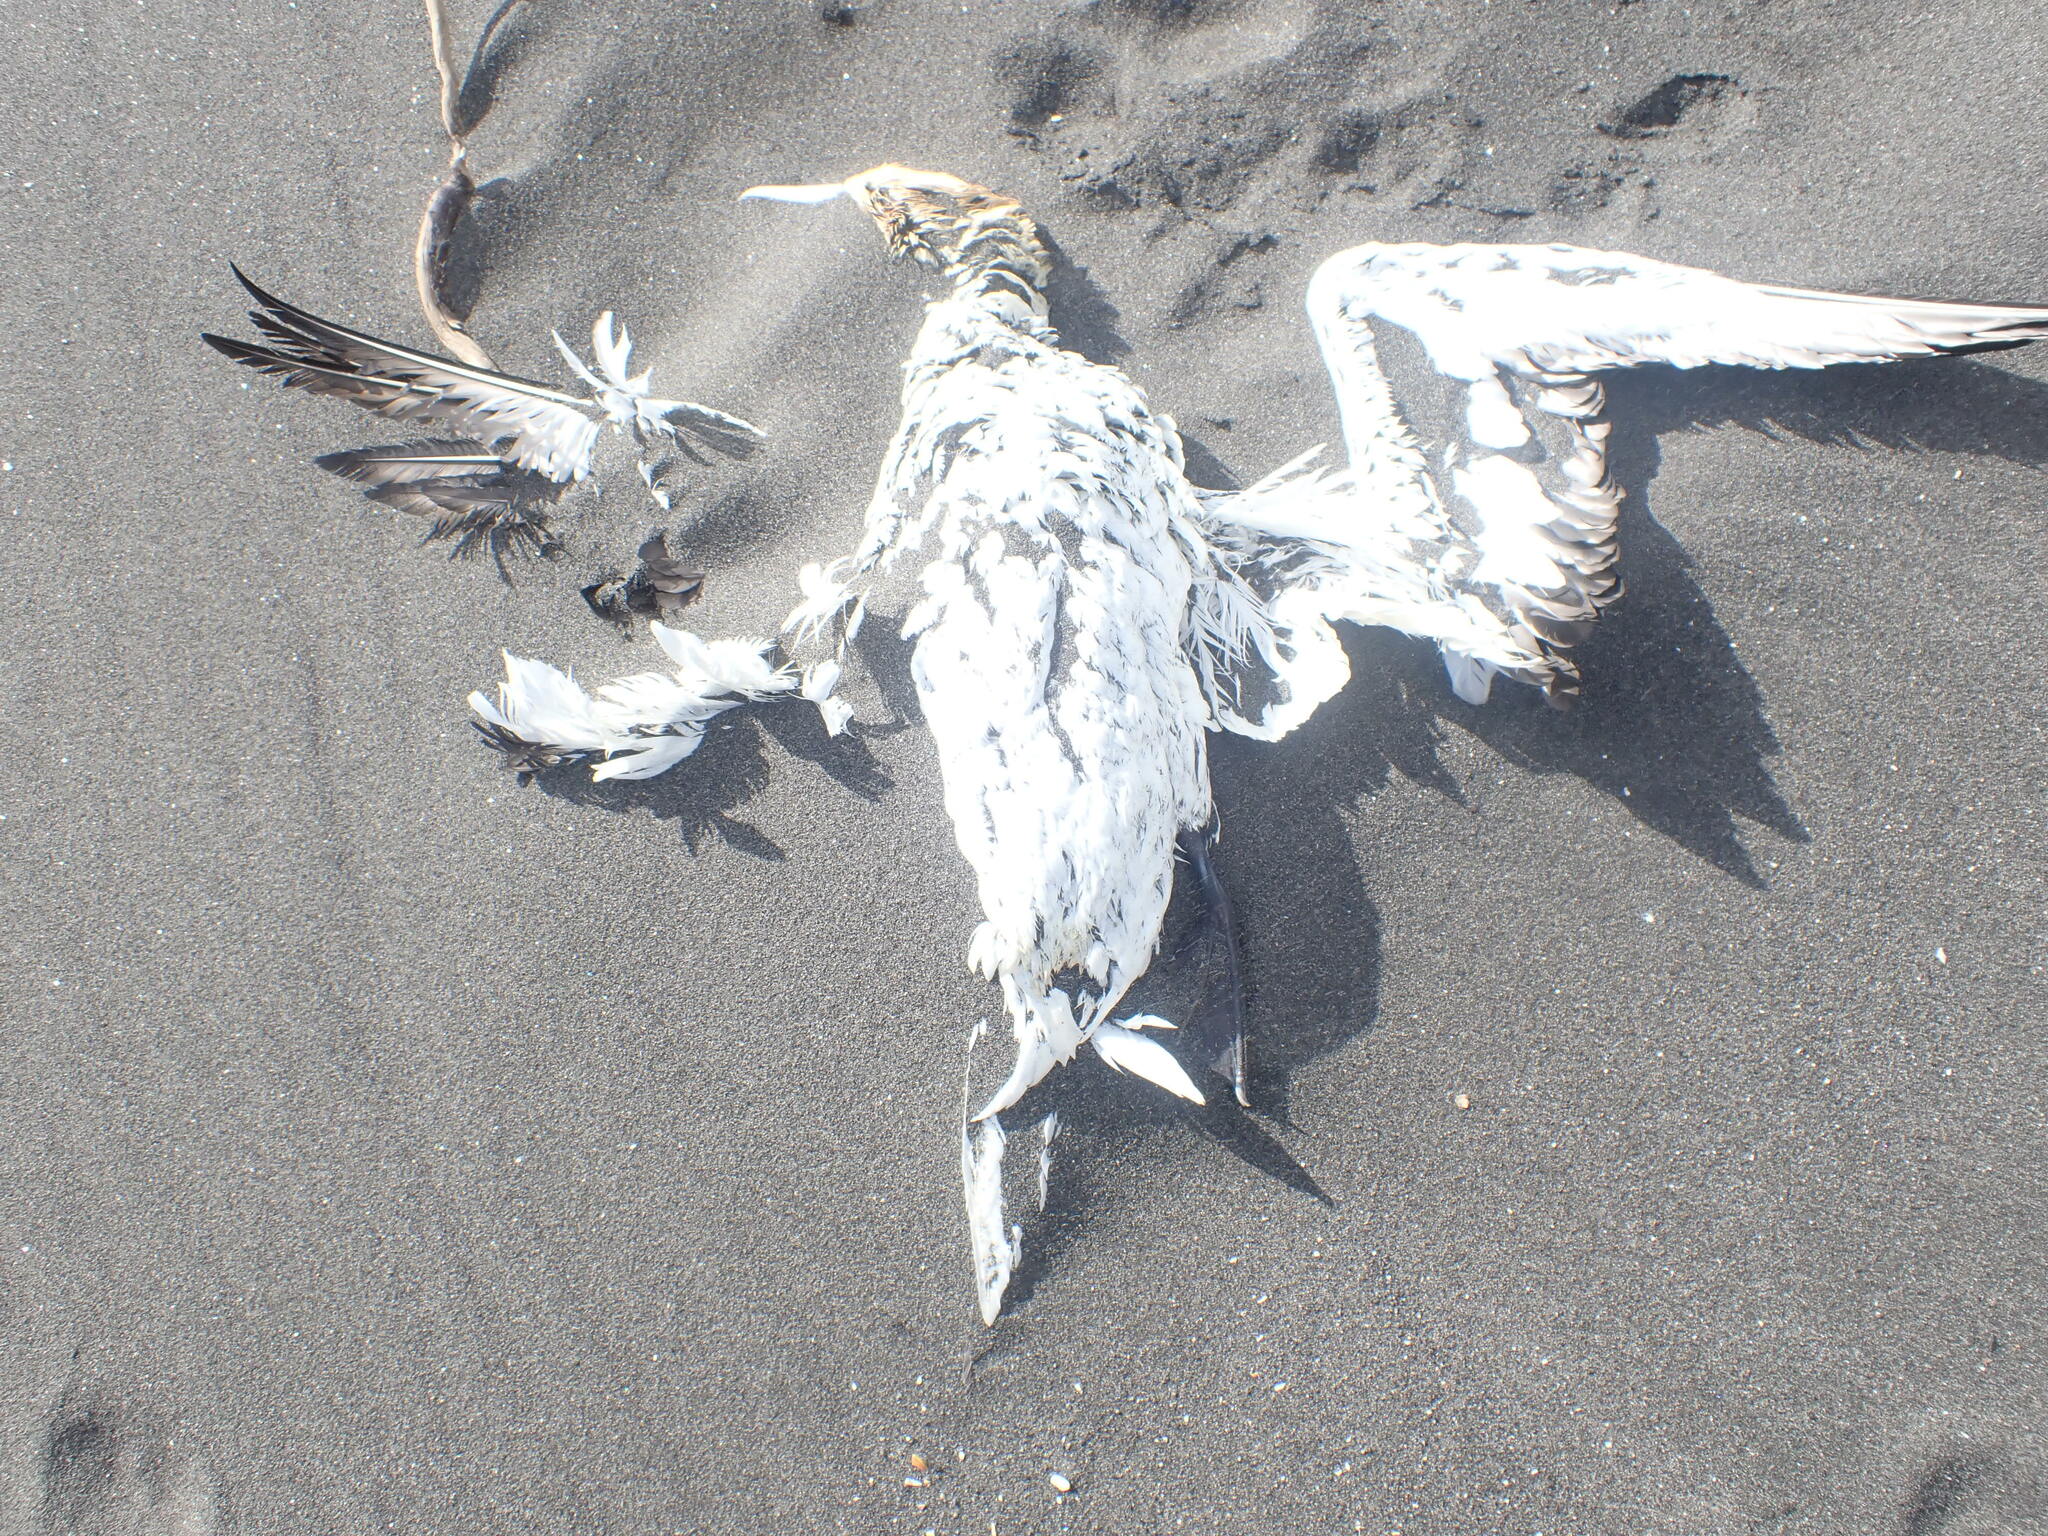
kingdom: Animalia
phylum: Chordata
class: Aves
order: Suliformes
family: Sulidae
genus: Morus
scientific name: Morus serrator
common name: Australasian gannet
